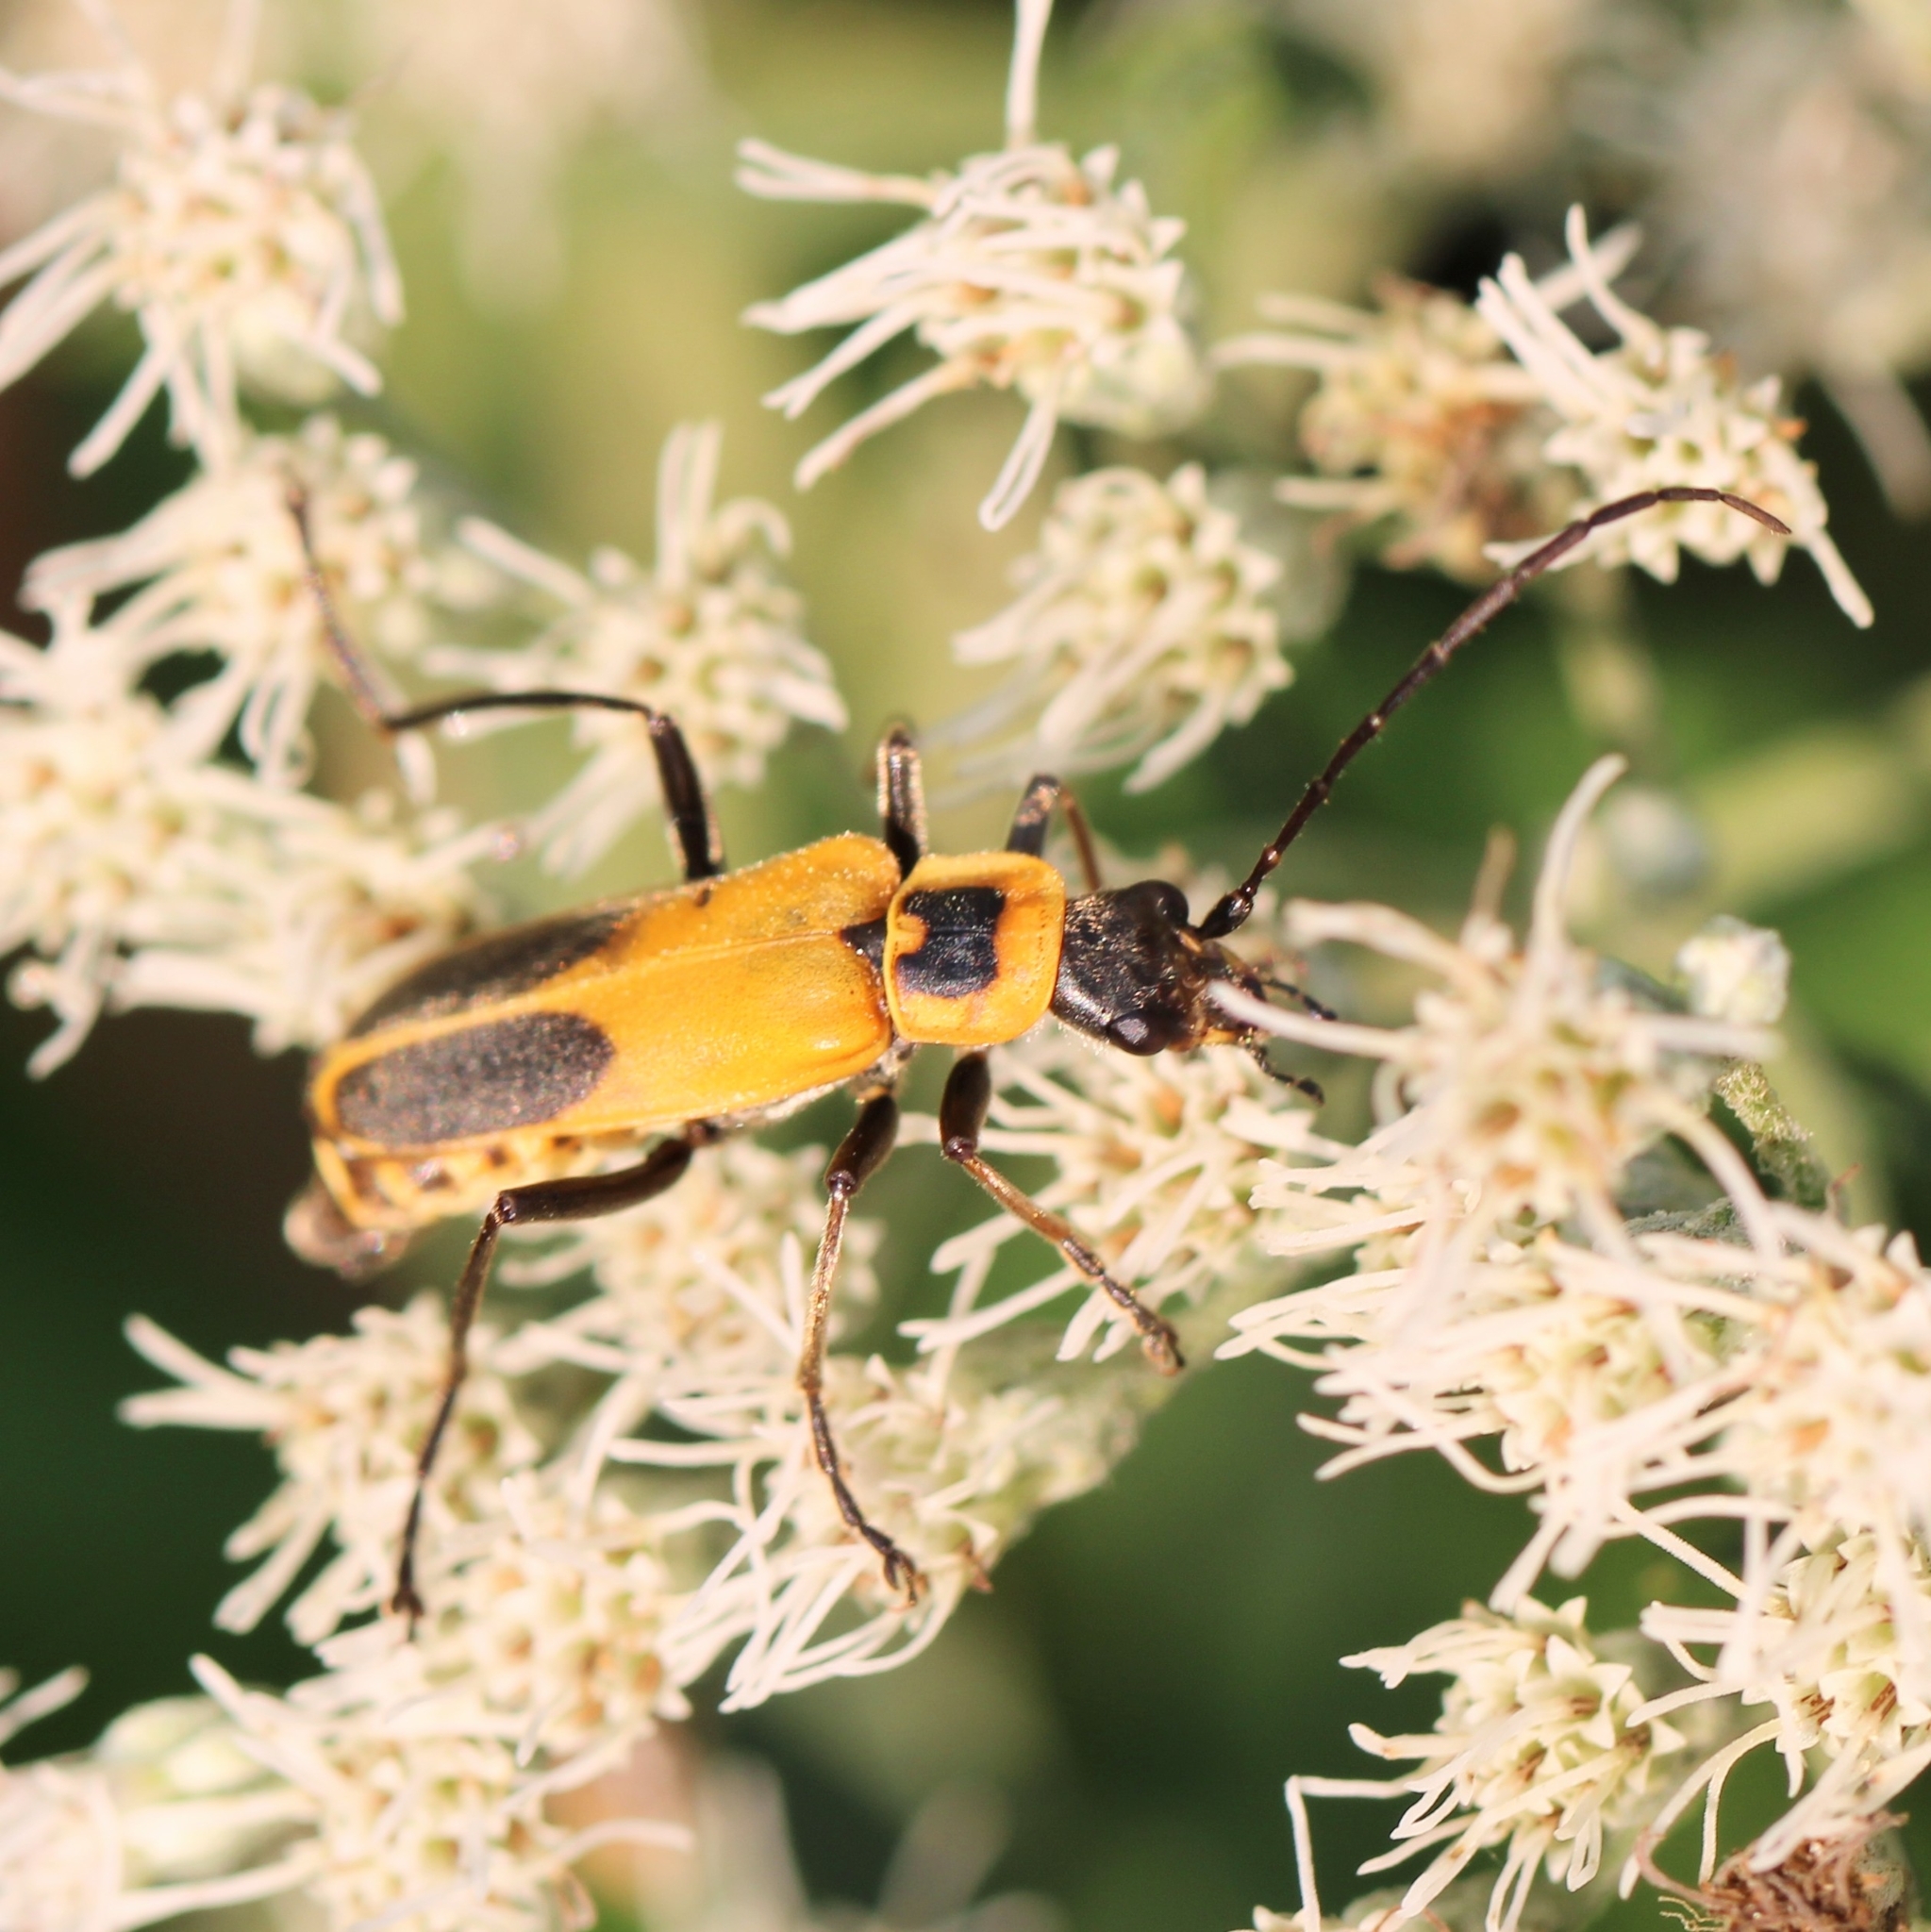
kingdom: Animalia
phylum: Arthropoda
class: Insecta
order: Coleoptera
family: Cantharidae
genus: Chauliognathus
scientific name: Chauliognathus pensylvanicus
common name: Goldenrod soldier beetle
